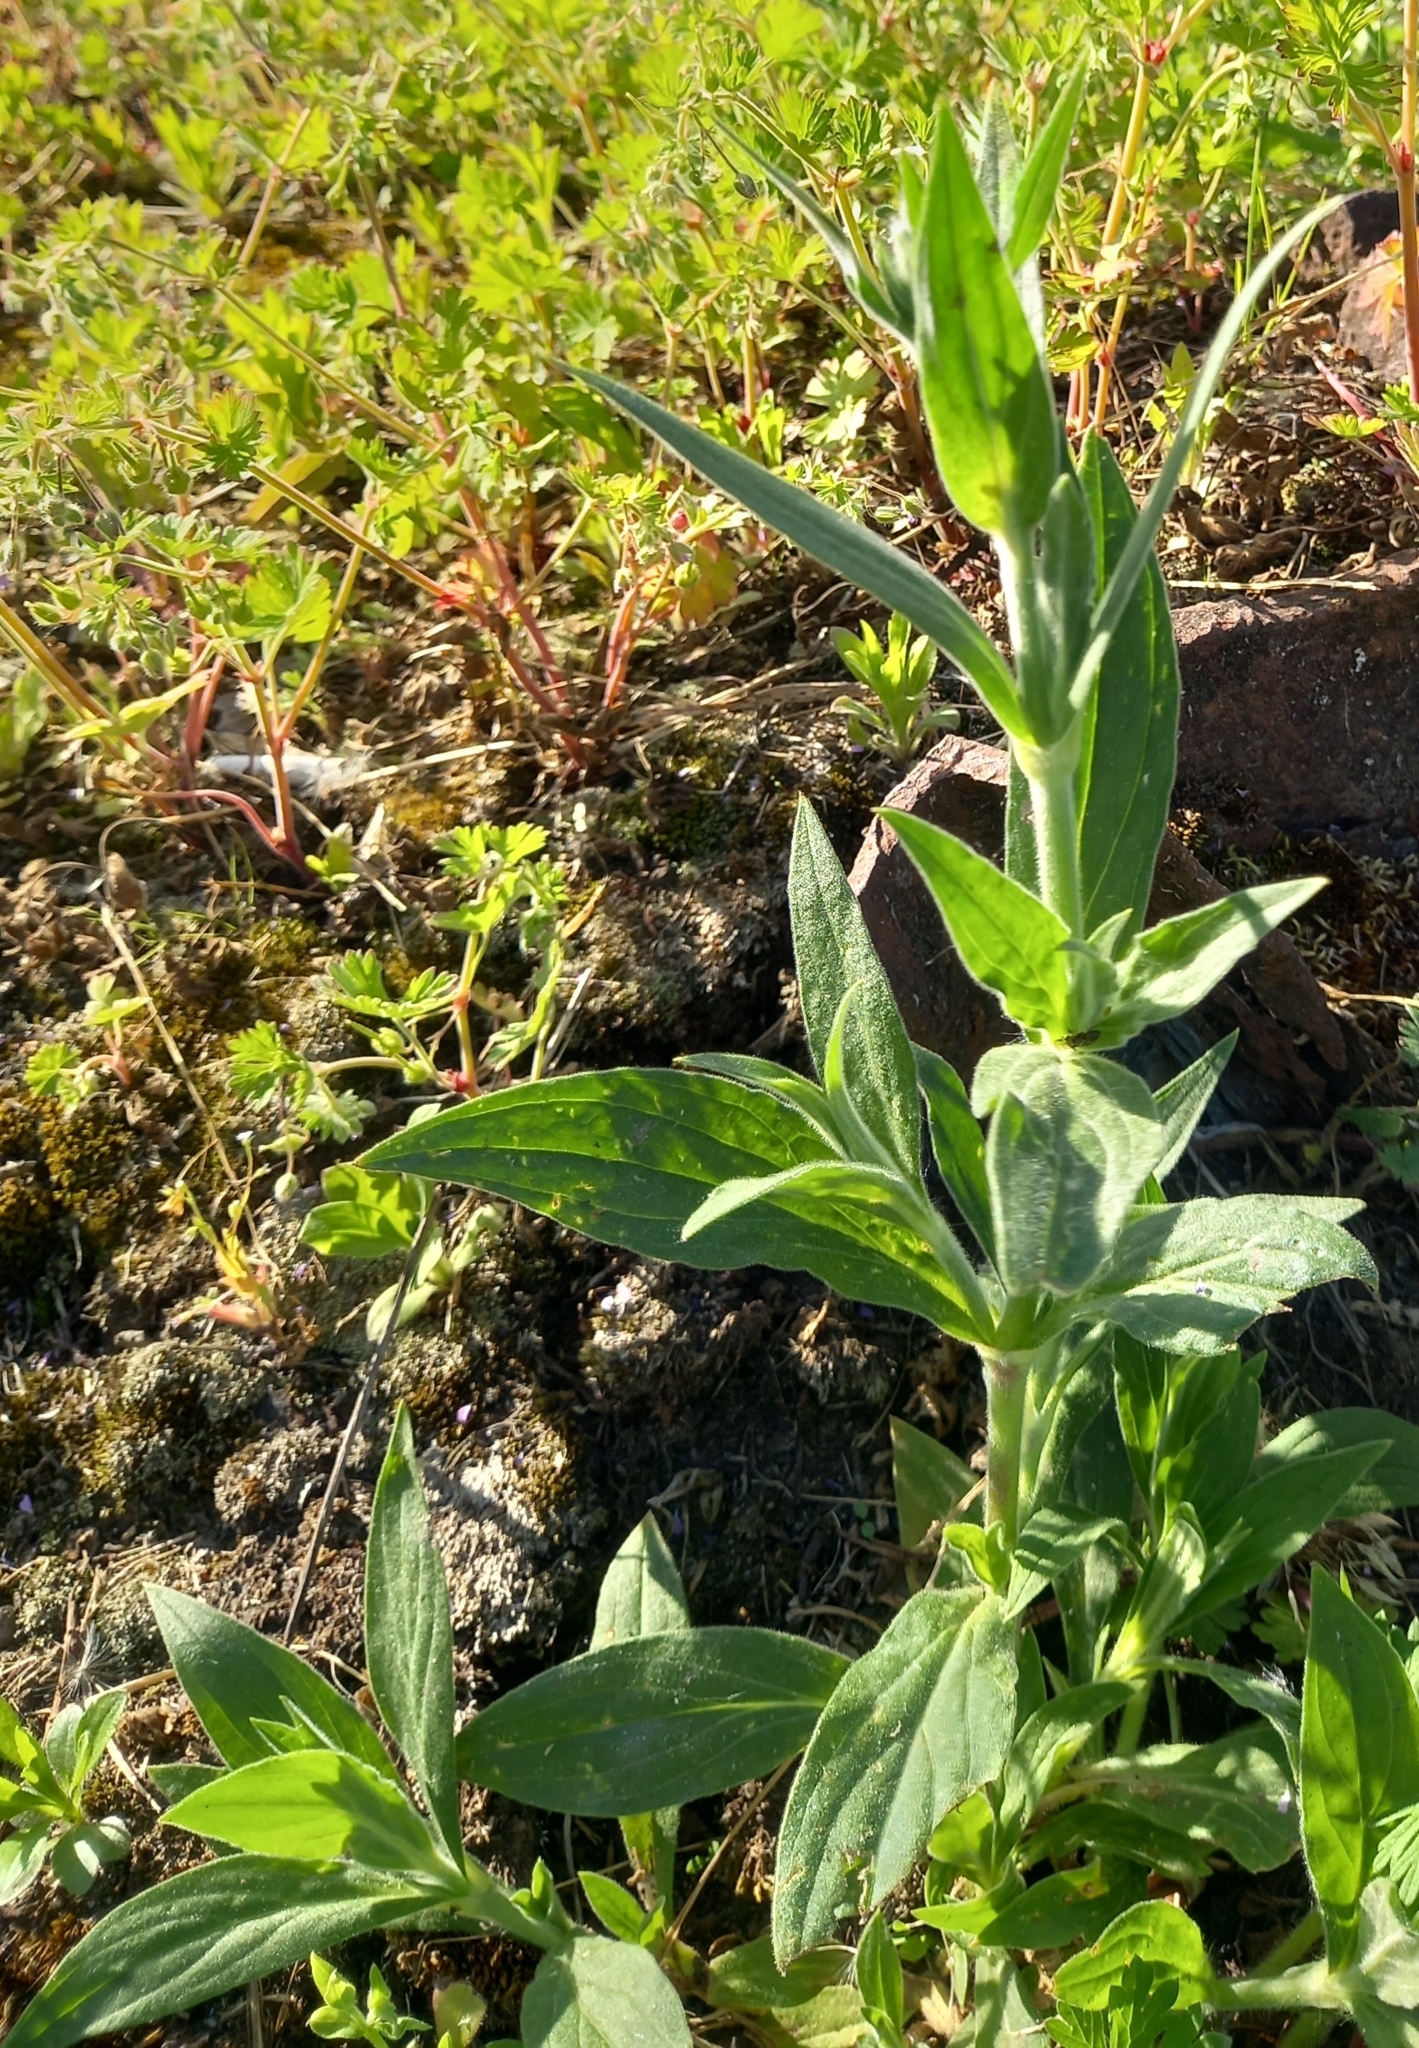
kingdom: Plantae
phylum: Tracheophyta
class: Magnoliopsida
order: Caryophyllales
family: Caryophyllaceae
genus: Silene
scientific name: Silene latifolia
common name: White campion
